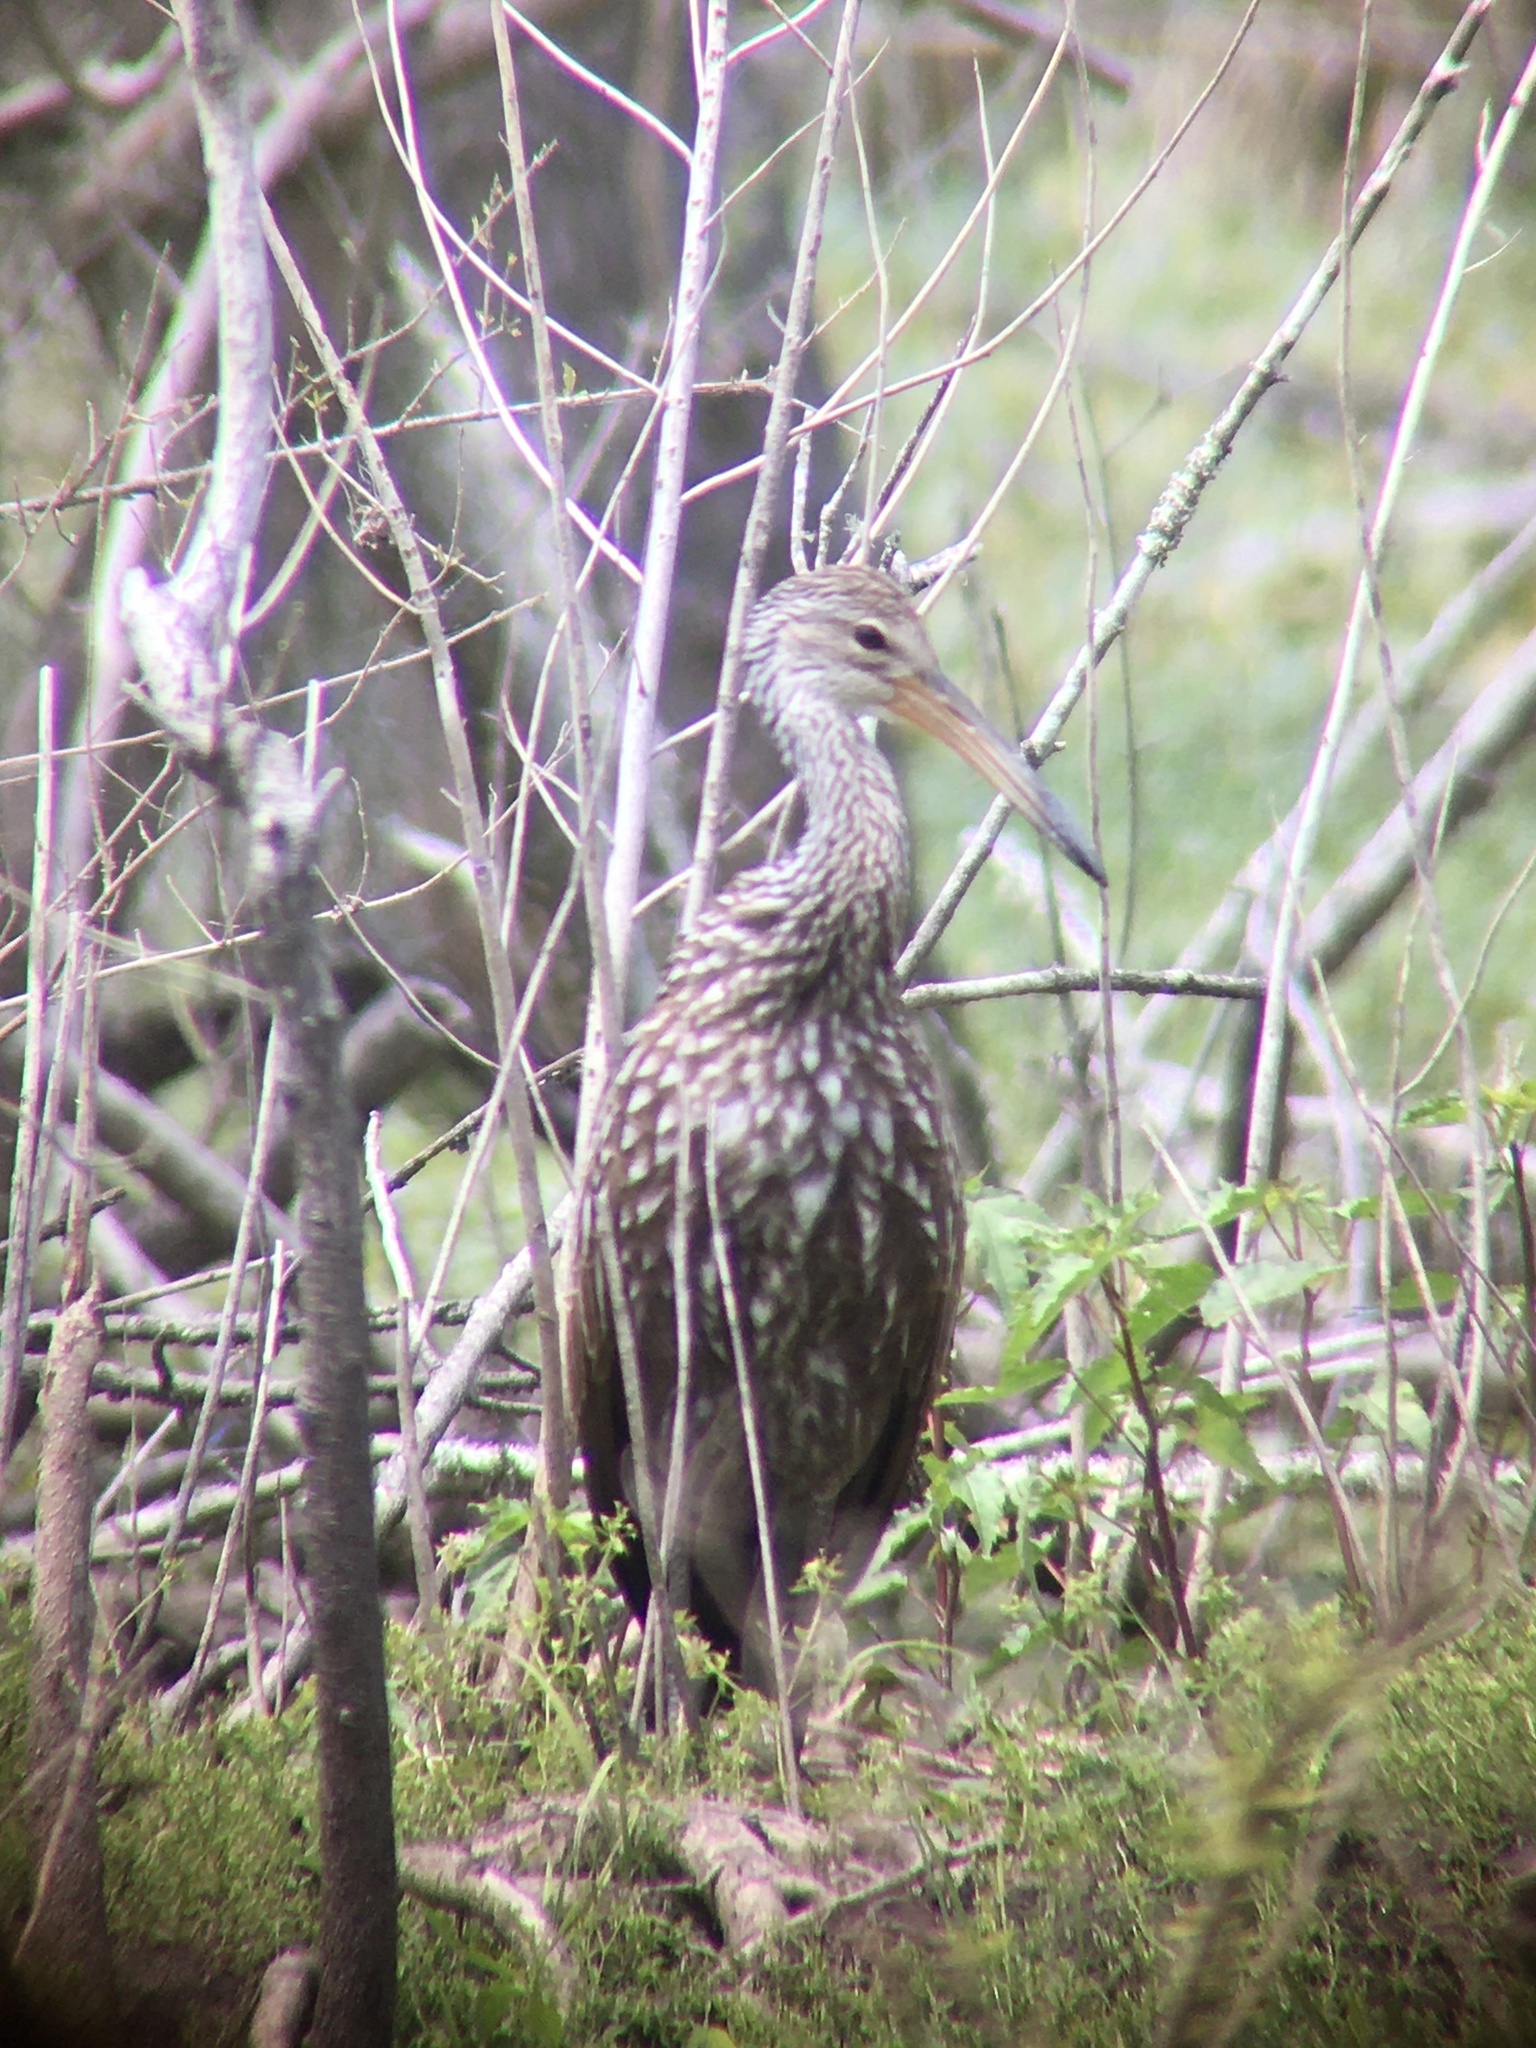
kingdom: Animalia
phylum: Chordata
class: Aves
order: Gruiformes
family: Aramidae
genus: Aramus
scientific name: Aramus guarauna
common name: Limpkin
